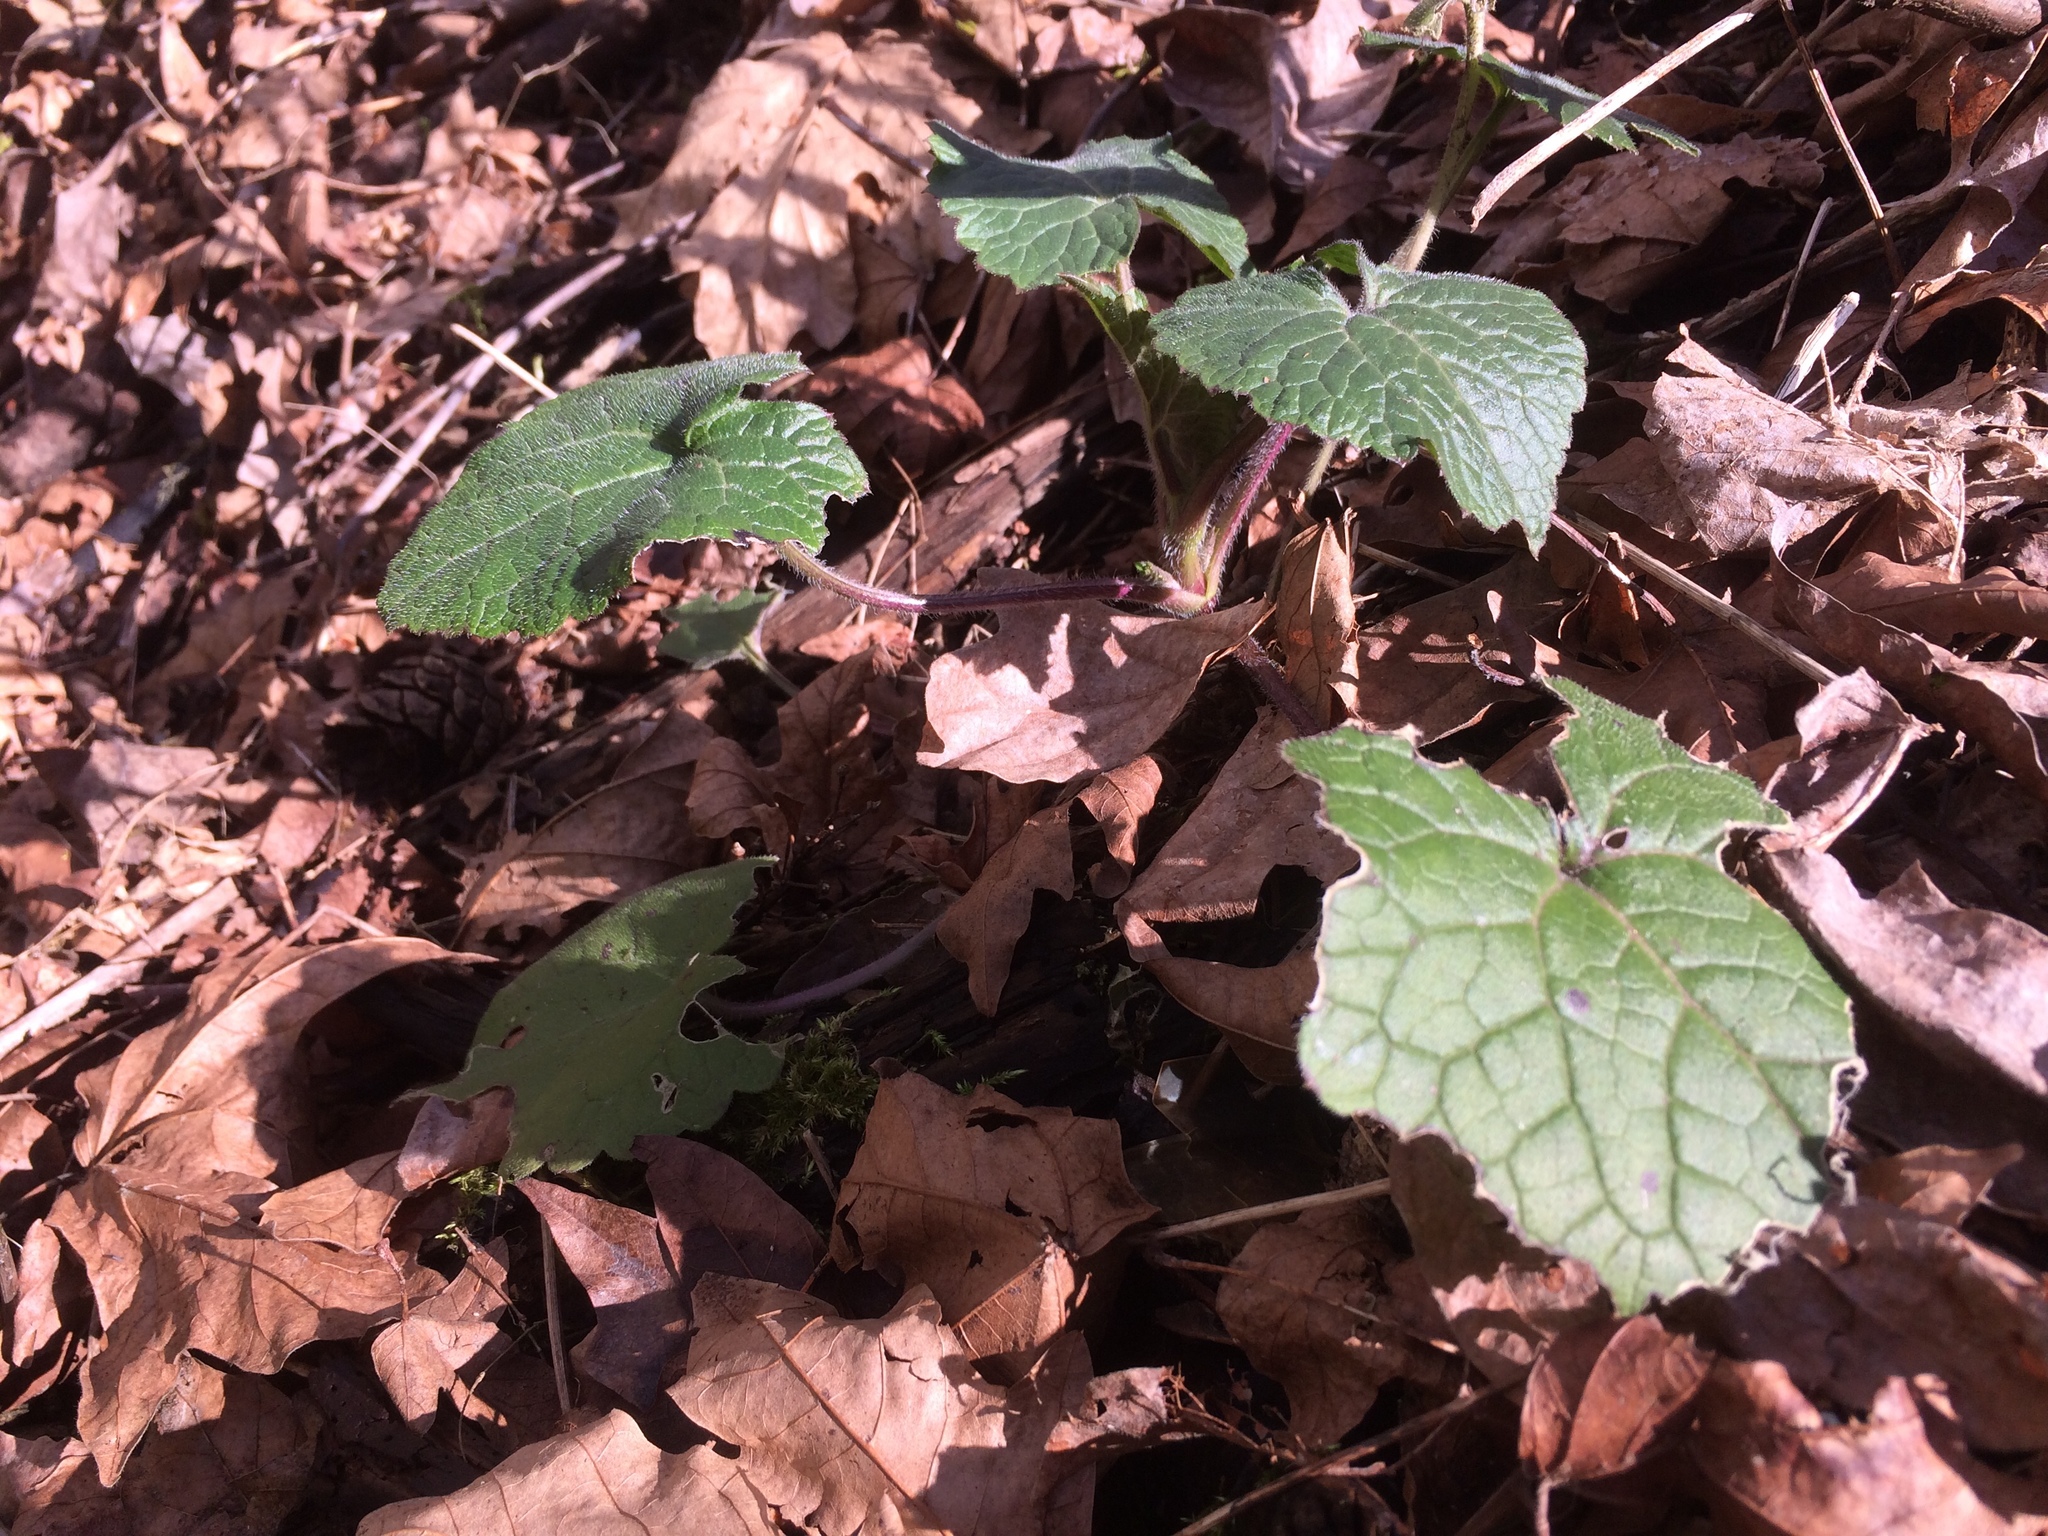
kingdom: Plantae
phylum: Tracheophyta
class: Magnoliopsida
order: Brassicales
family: Brassicaceae
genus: Lunaria
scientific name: Lunaria annua
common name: Honesty
